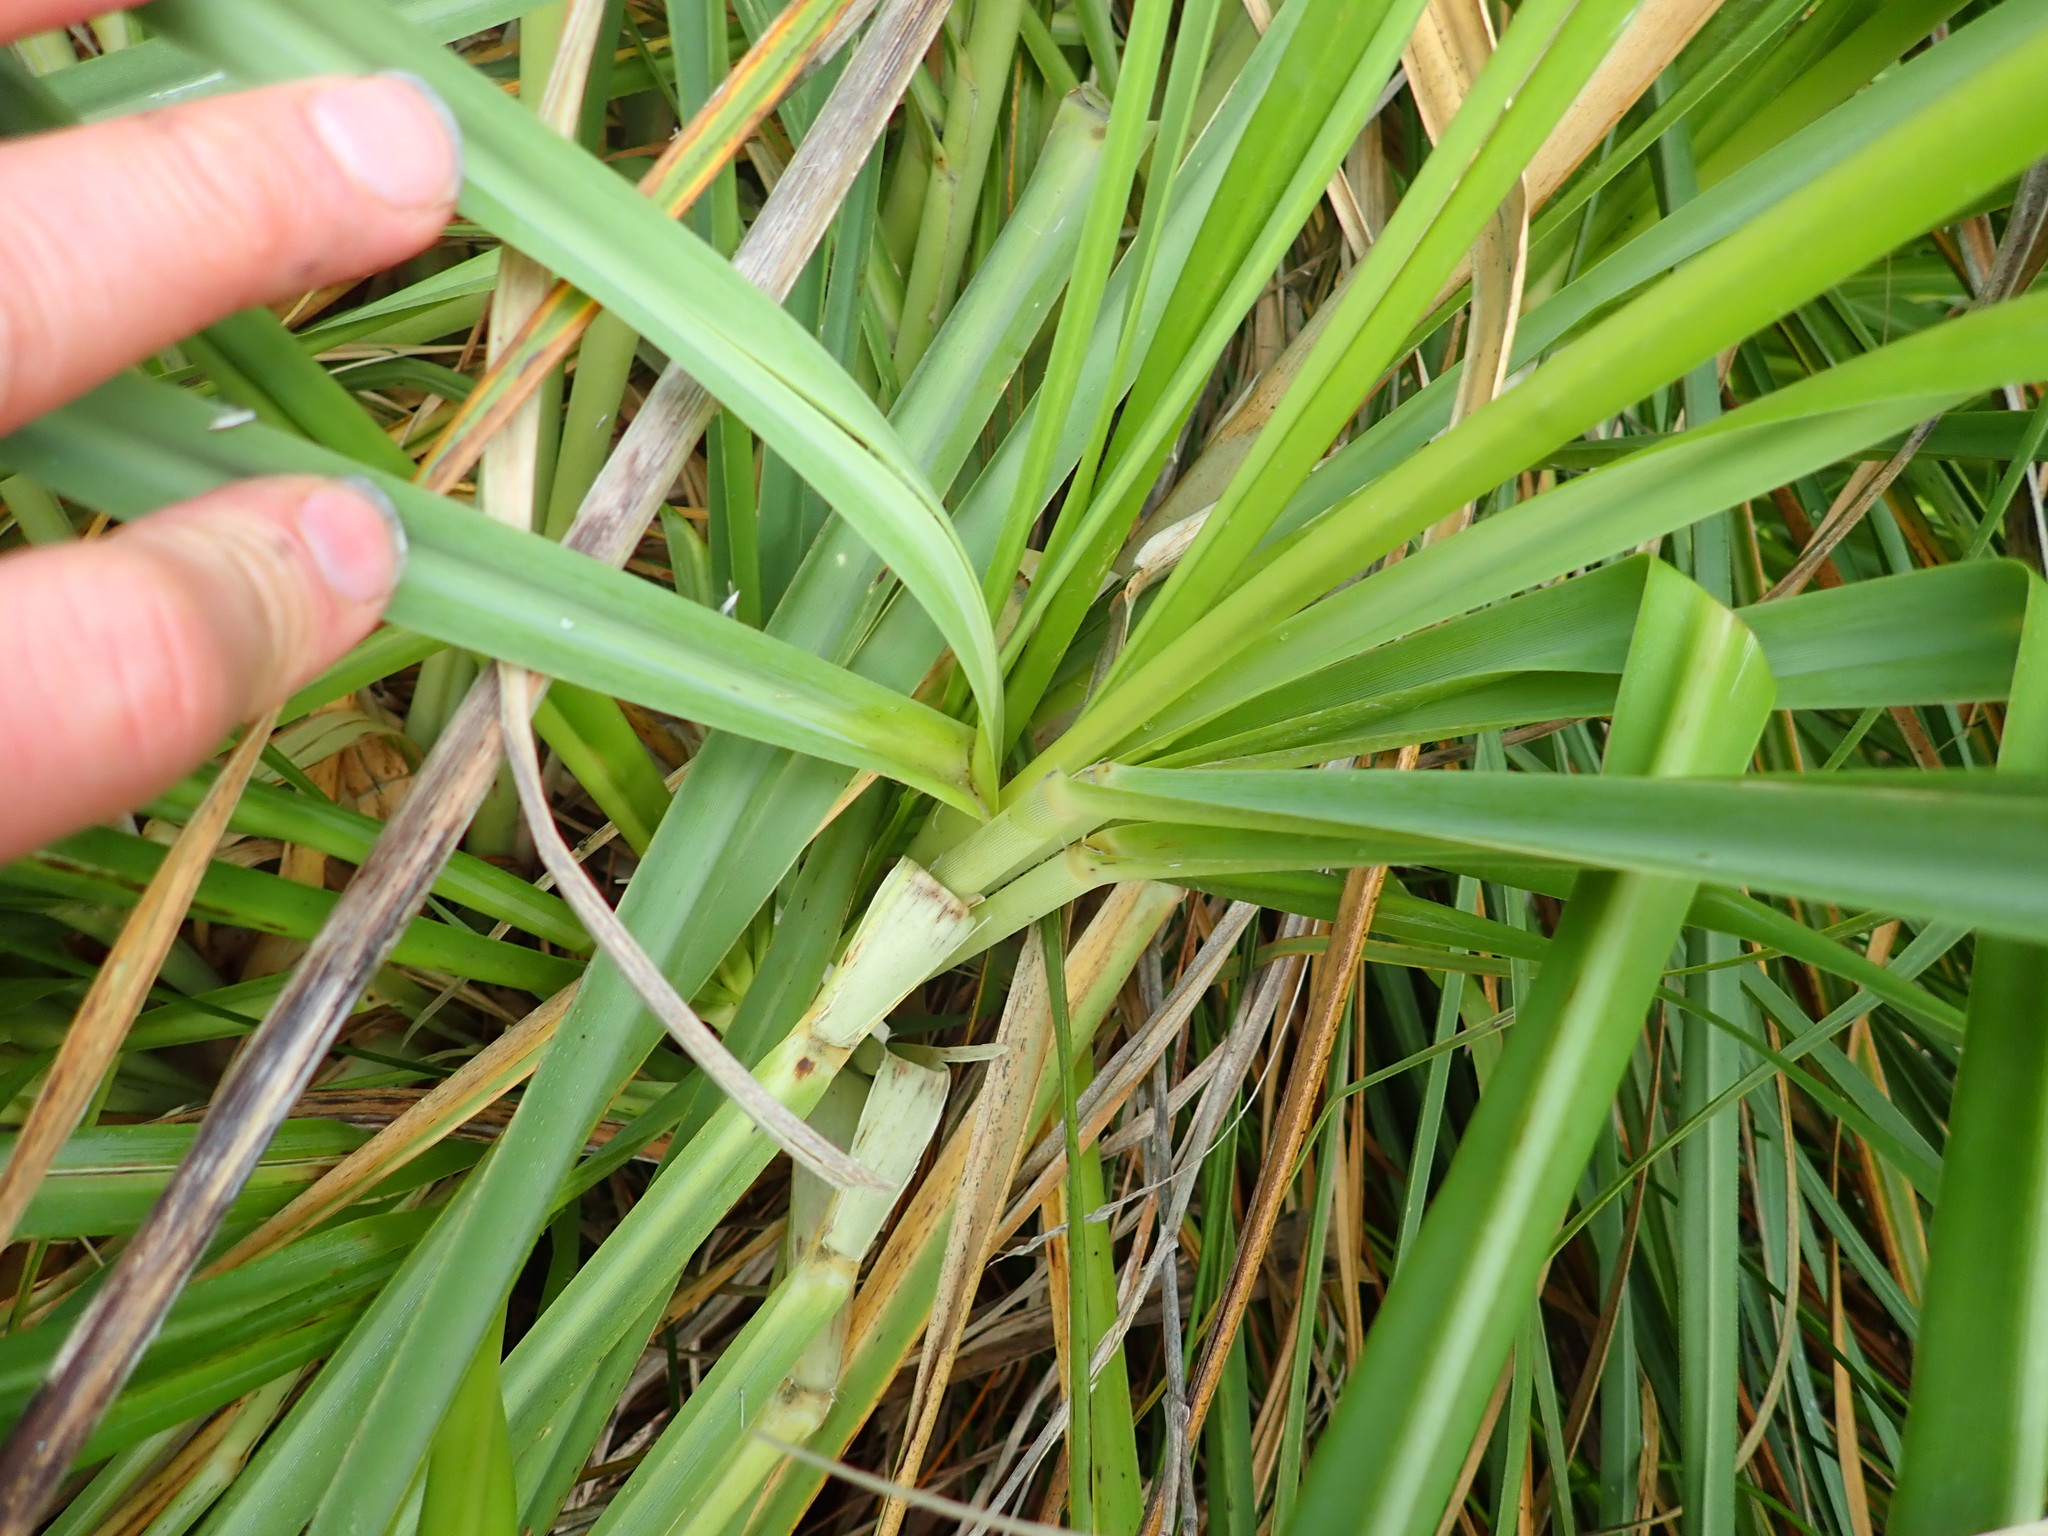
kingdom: Plantae
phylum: Tracheophyta
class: Liliopsida
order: Poales
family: Poaceae
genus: Cortaderia
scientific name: Cortaderia selloana
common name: Uruguayan pampas grass
